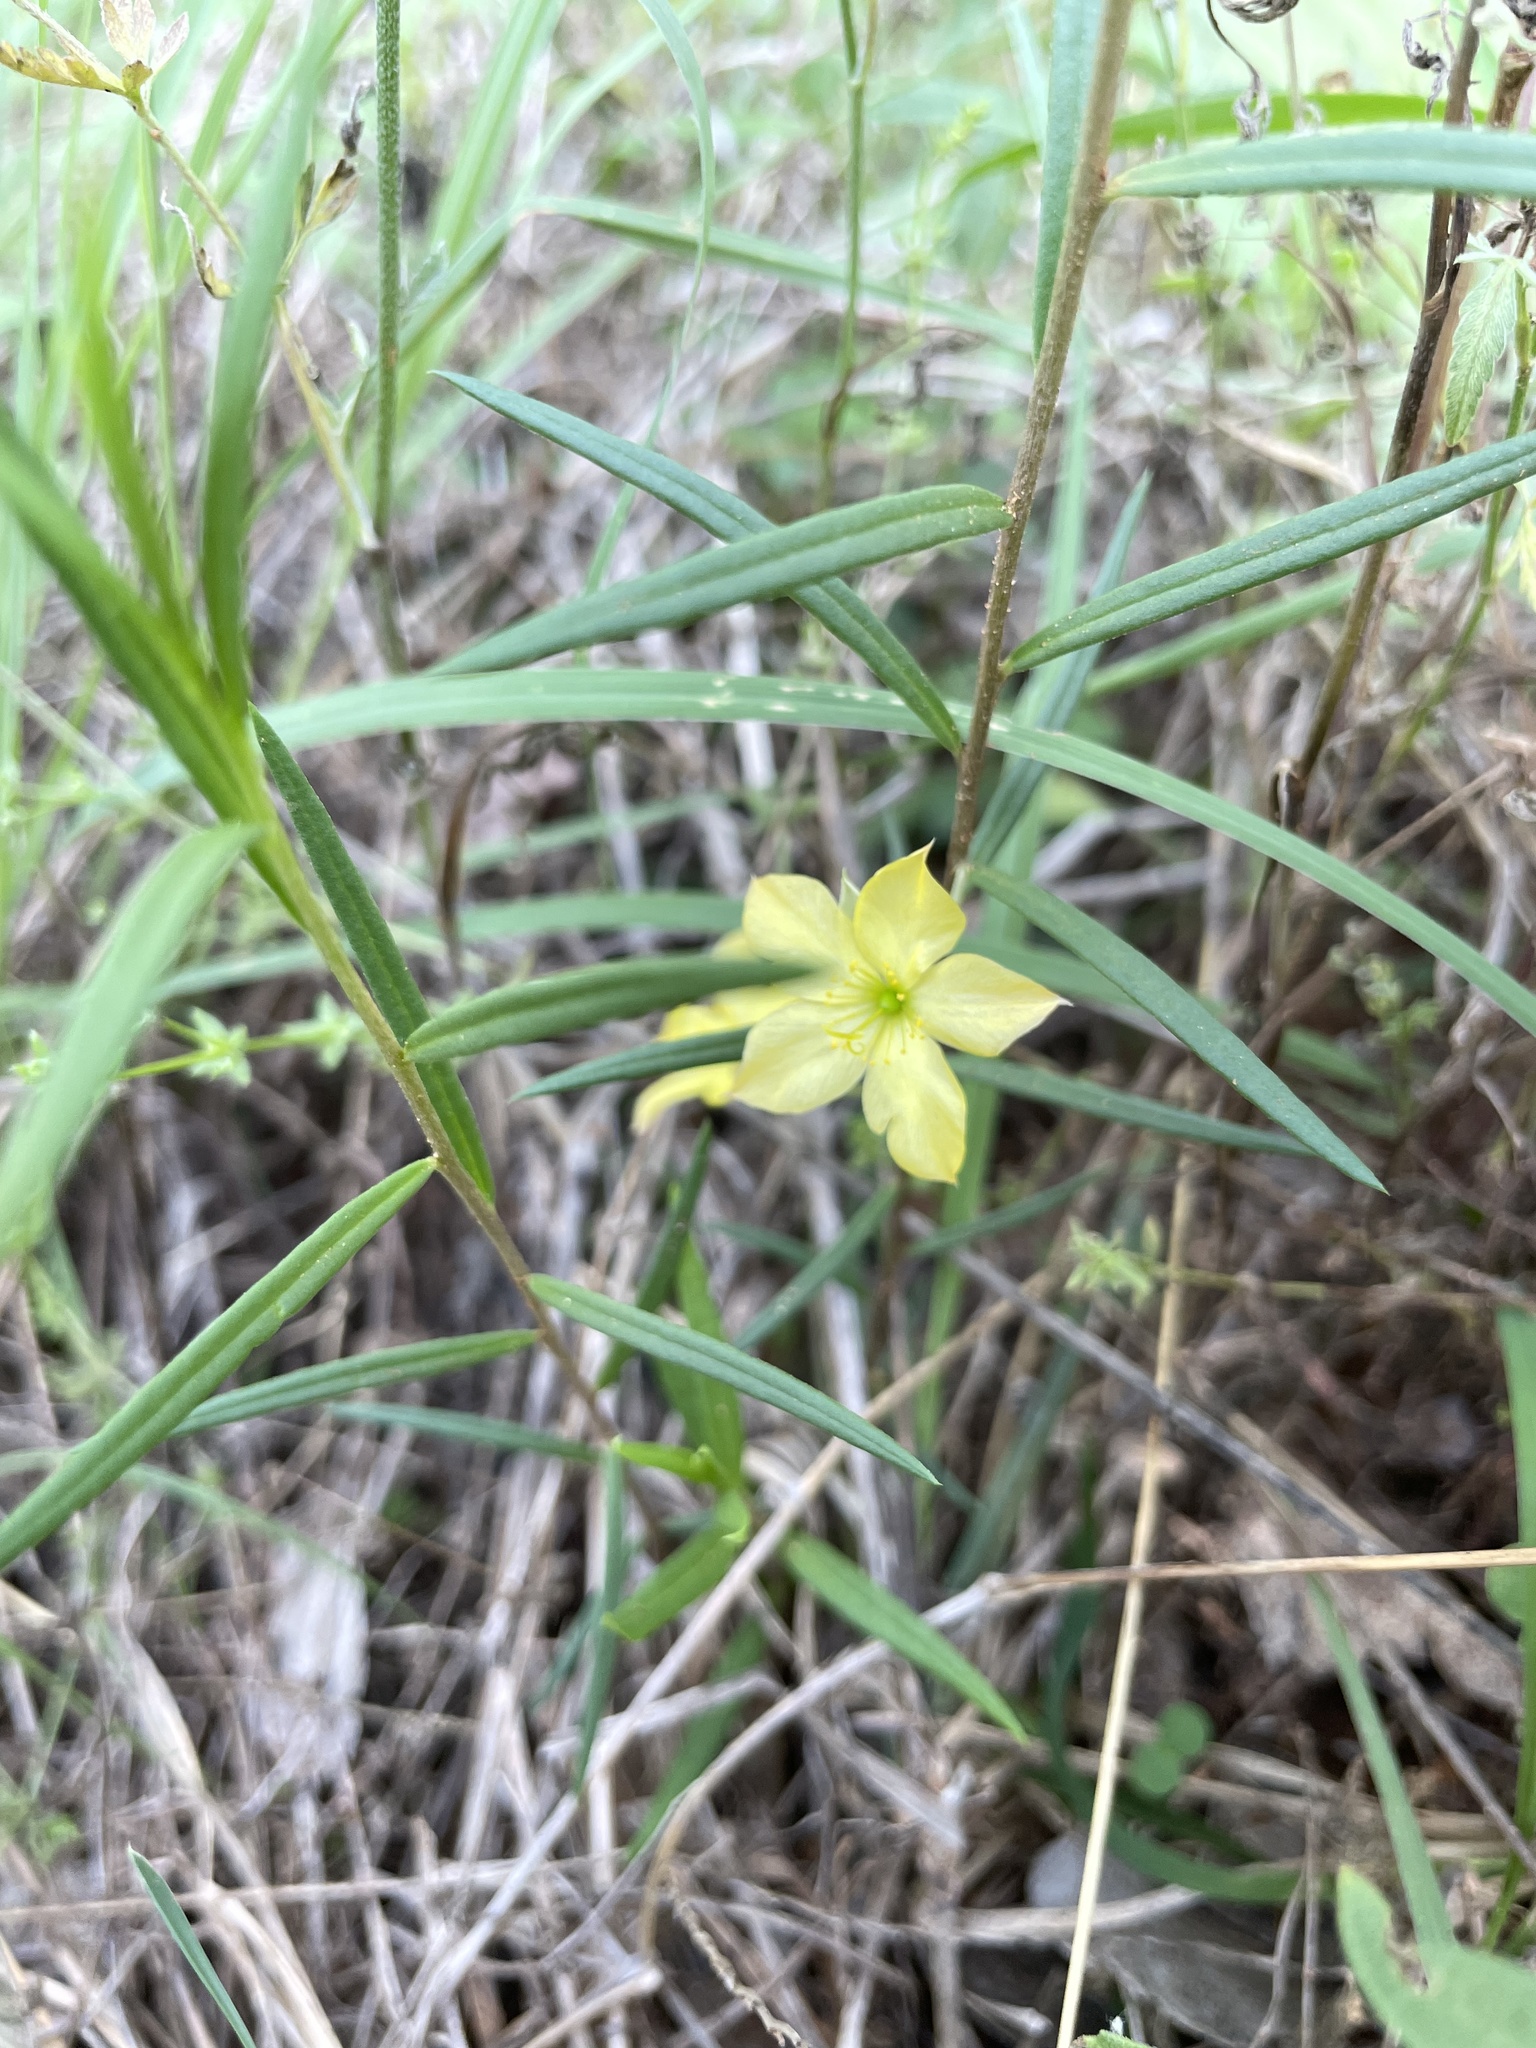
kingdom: Plantae
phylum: Tracheophyta
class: Magnoliopsida
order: Caryophyllales
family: Talinaceae
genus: Talinum
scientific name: Talinum polygaloides
